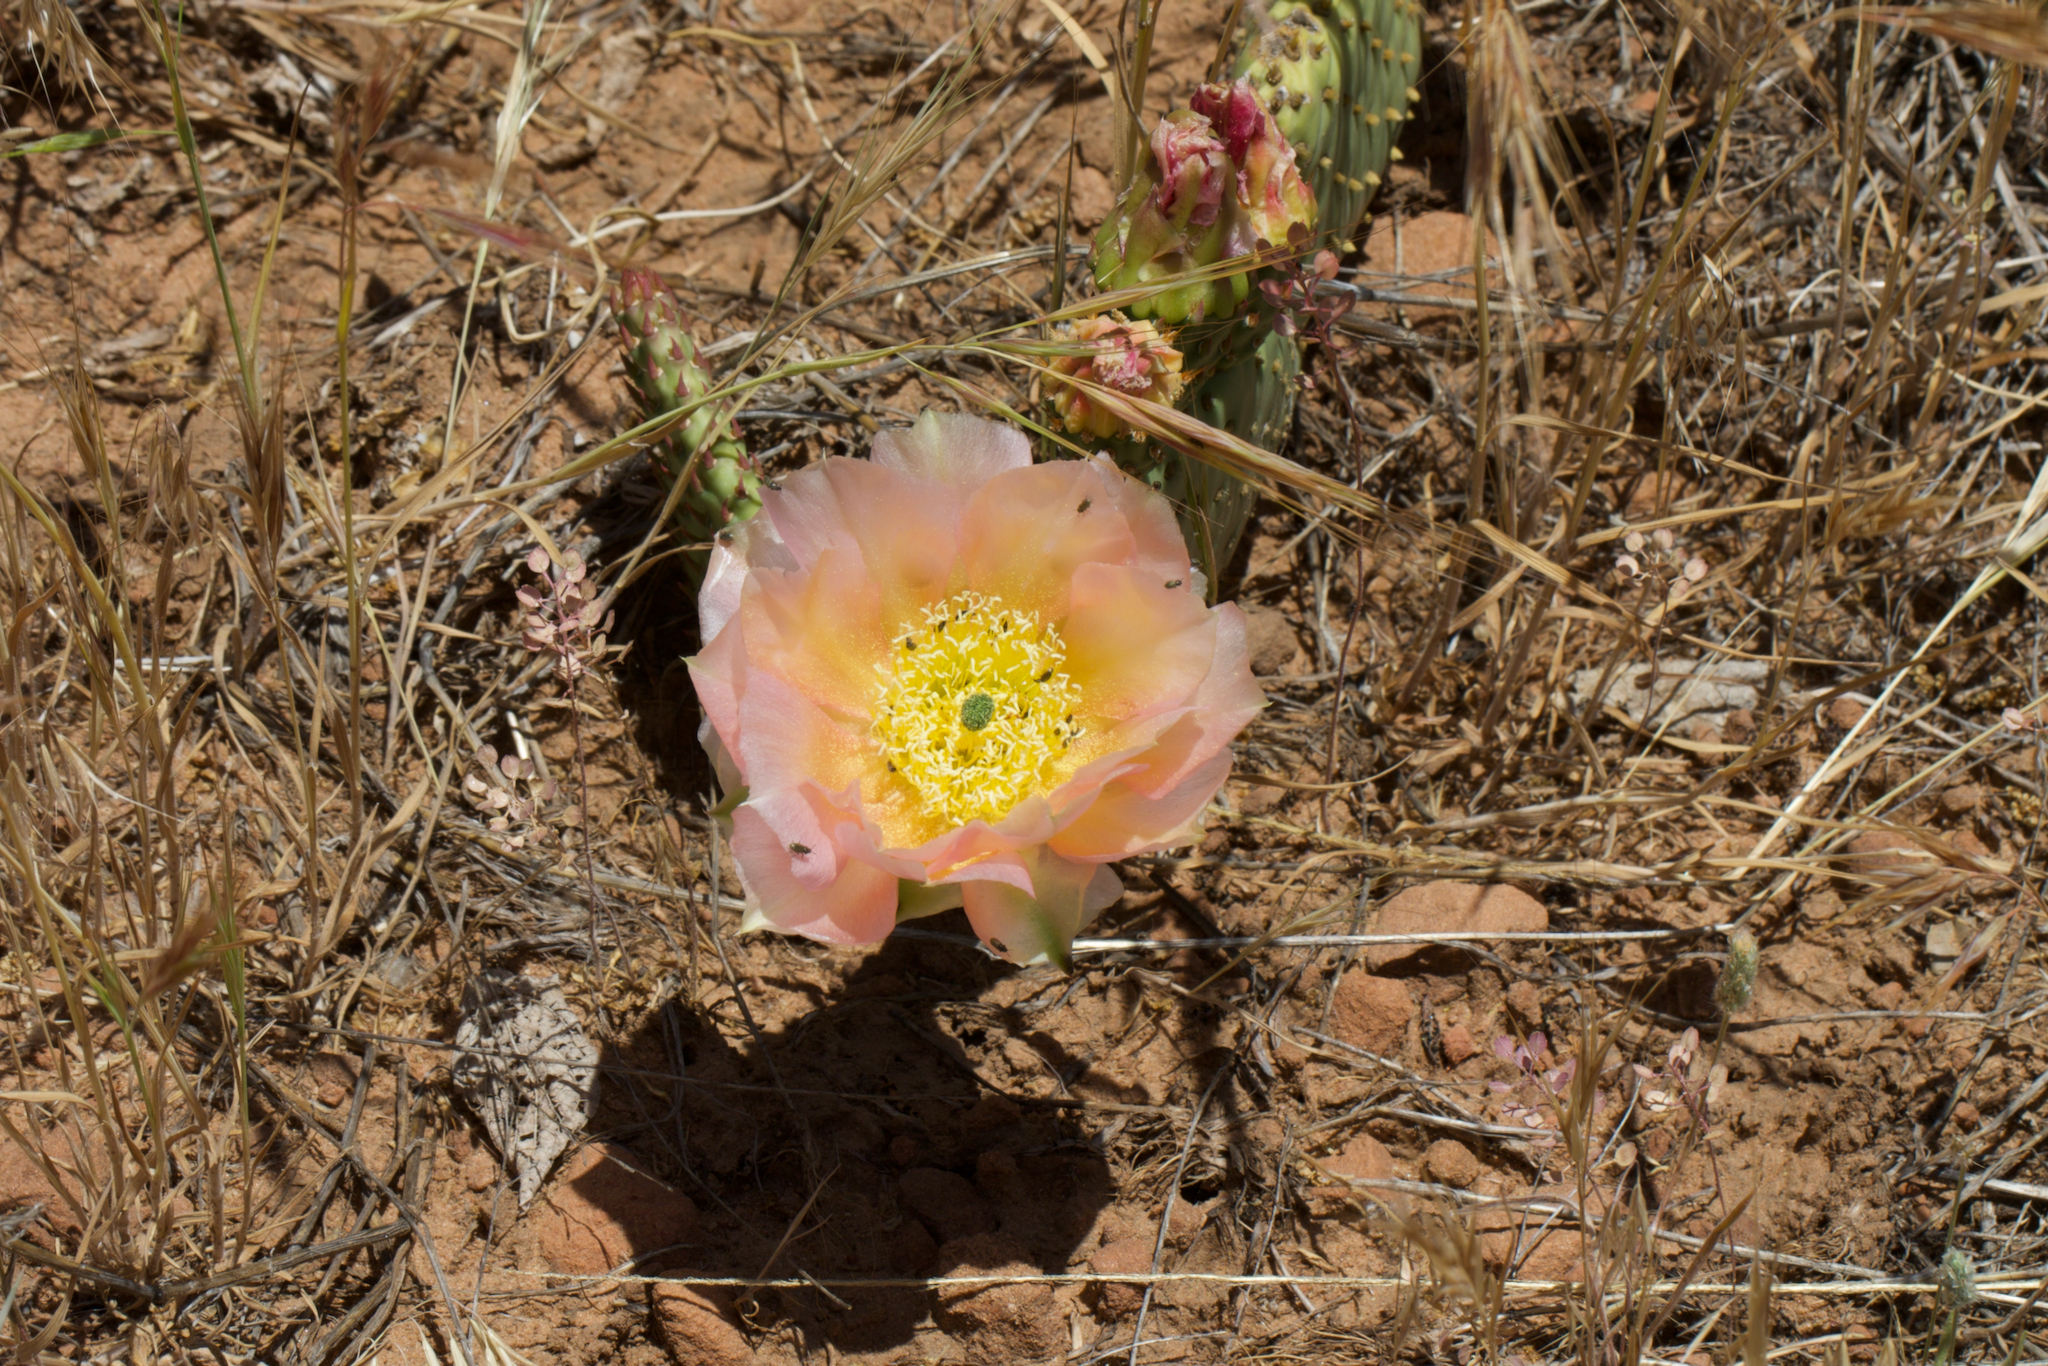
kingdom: Plantae
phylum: Tracheophyta
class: Magnoliopsida
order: Caryophyllales
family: Cactaceae
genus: Opuntia
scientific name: Opuntia aurea
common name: Golden prickly-pear
